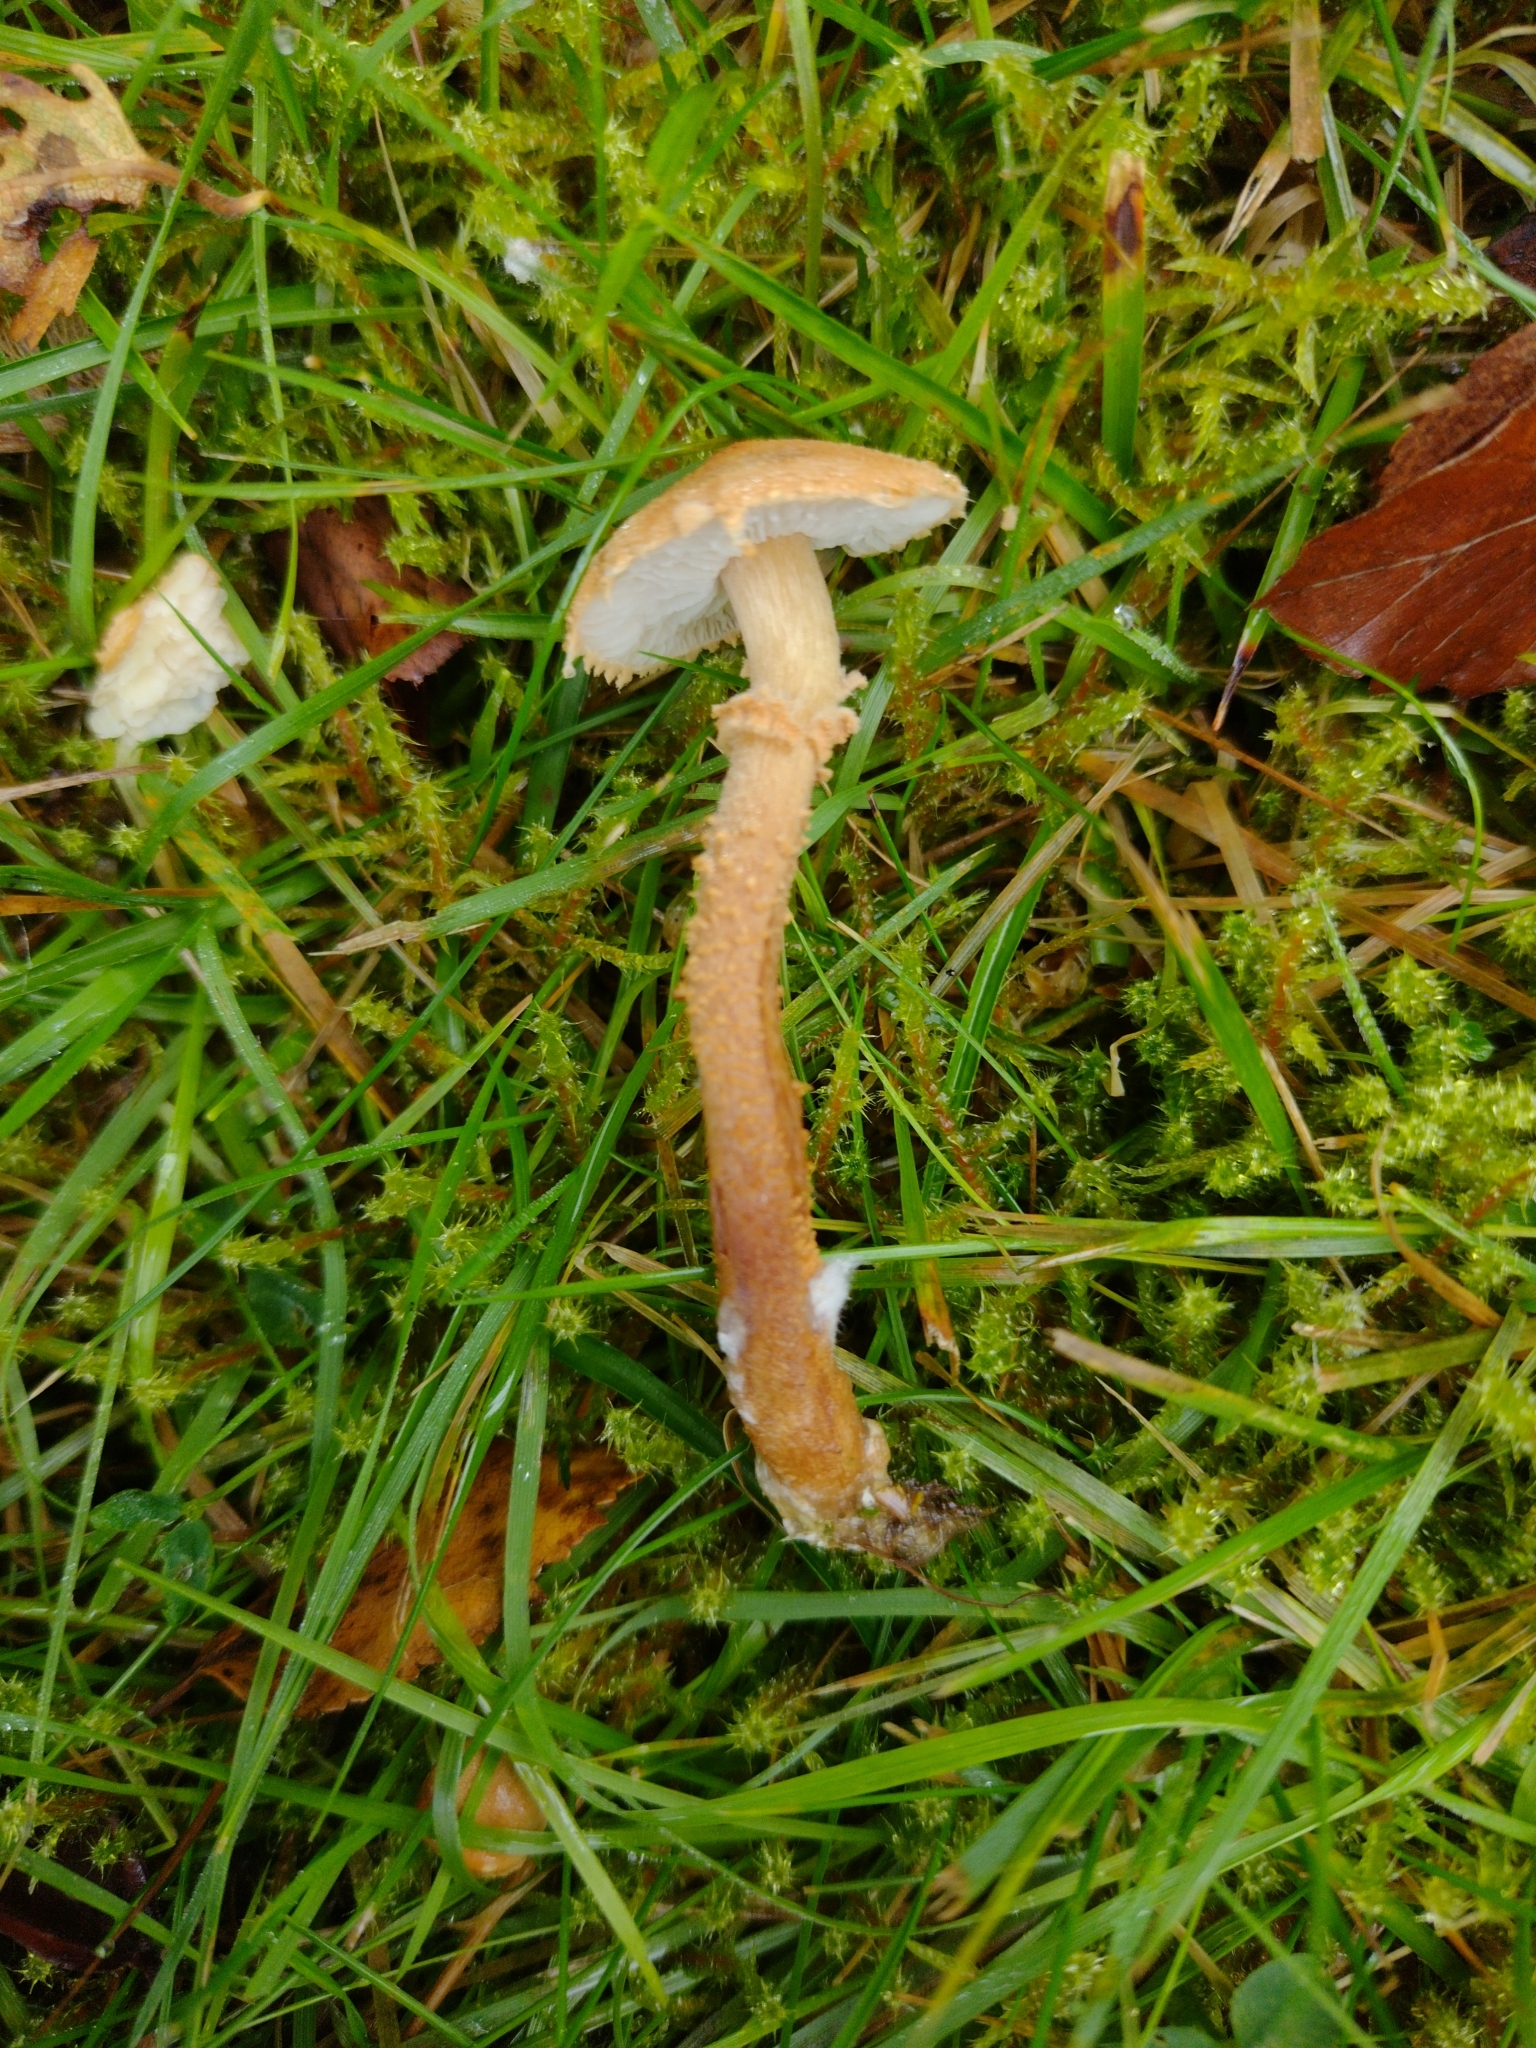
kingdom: Fungi
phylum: Basidiomycota
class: Agaricomycetes
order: Agaricales
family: Tricholomataceae
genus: Cystoderma
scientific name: Cystoderma amianthinum
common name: Earthy powdercap
